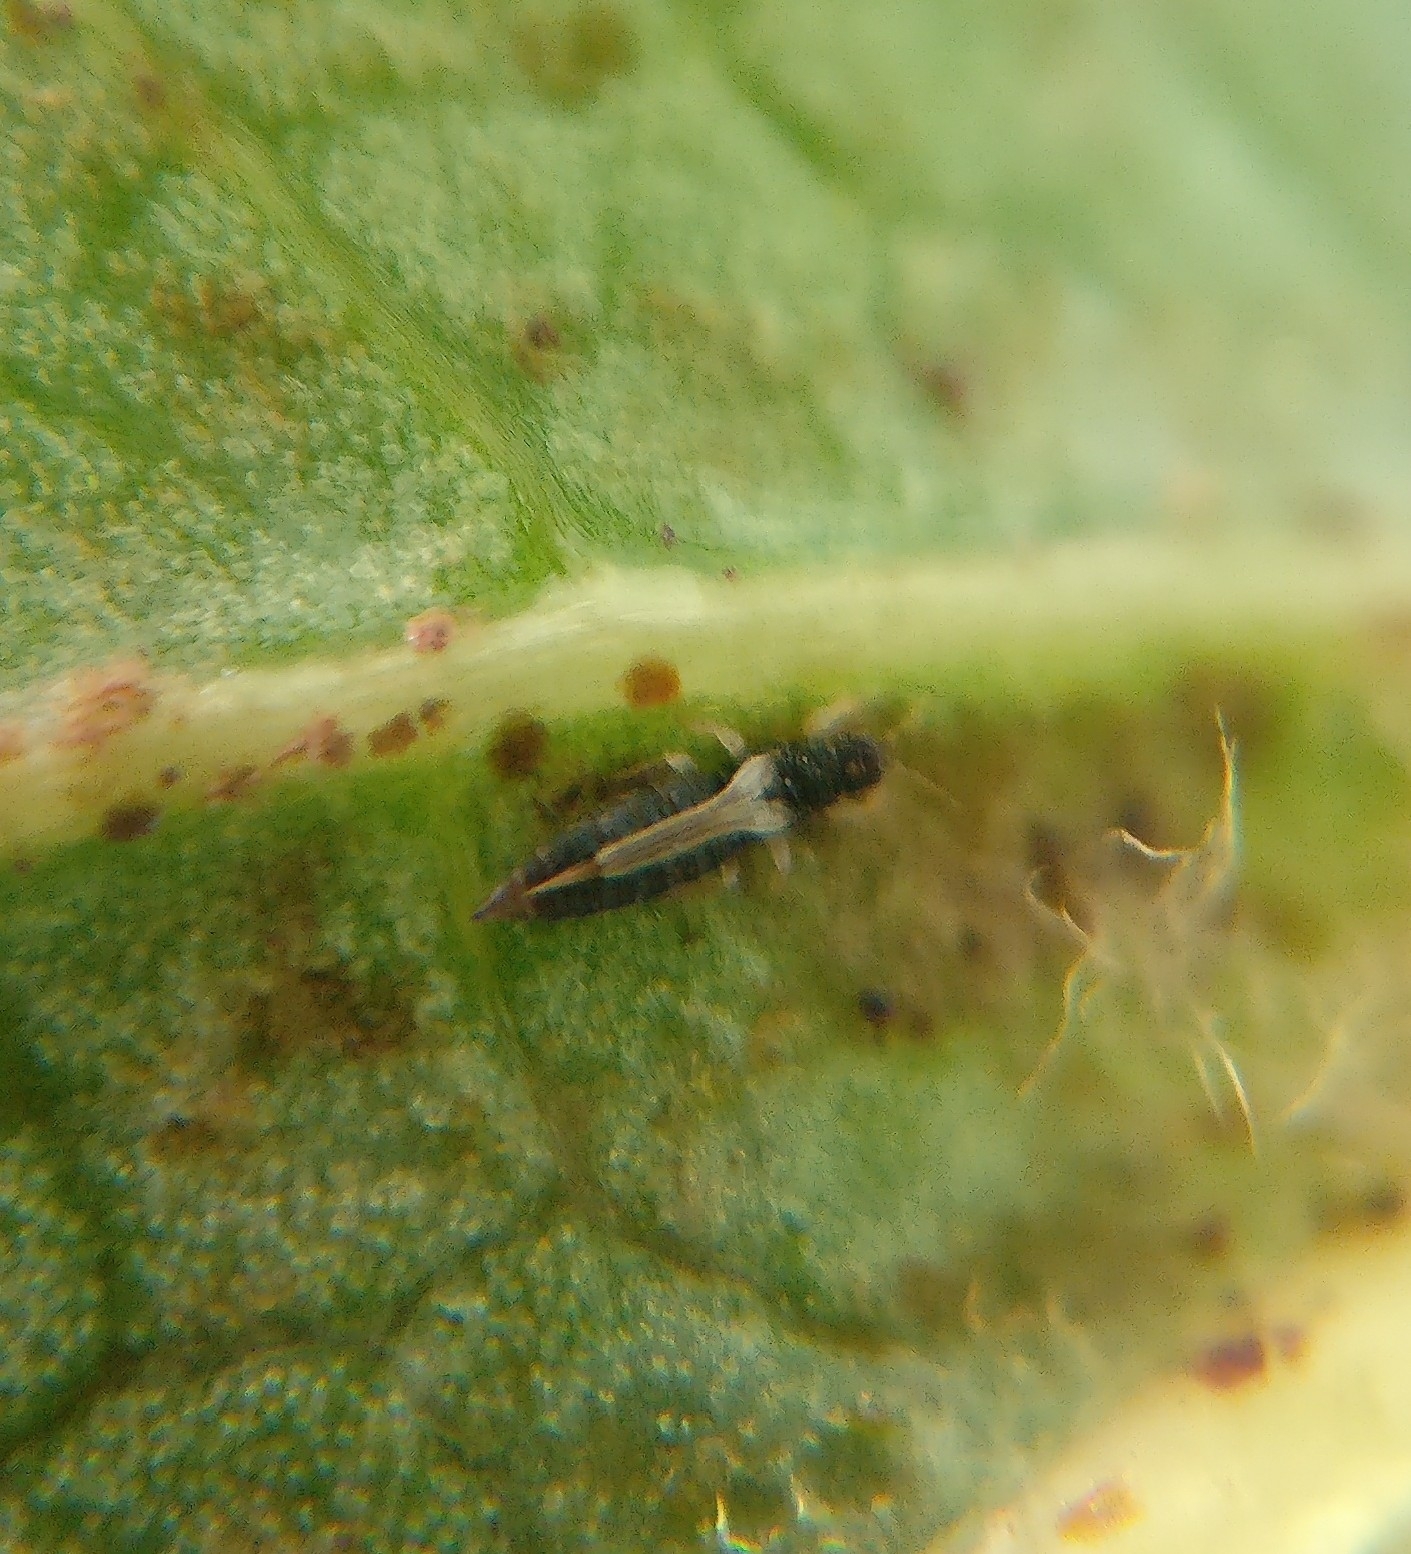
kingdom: Animalia
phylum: Arthropoda
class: Insecta
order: Thysanoptera
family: Thripidae
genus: Heliothrips
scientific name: Heliothrips haemorrhoidalis
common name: Thrips
